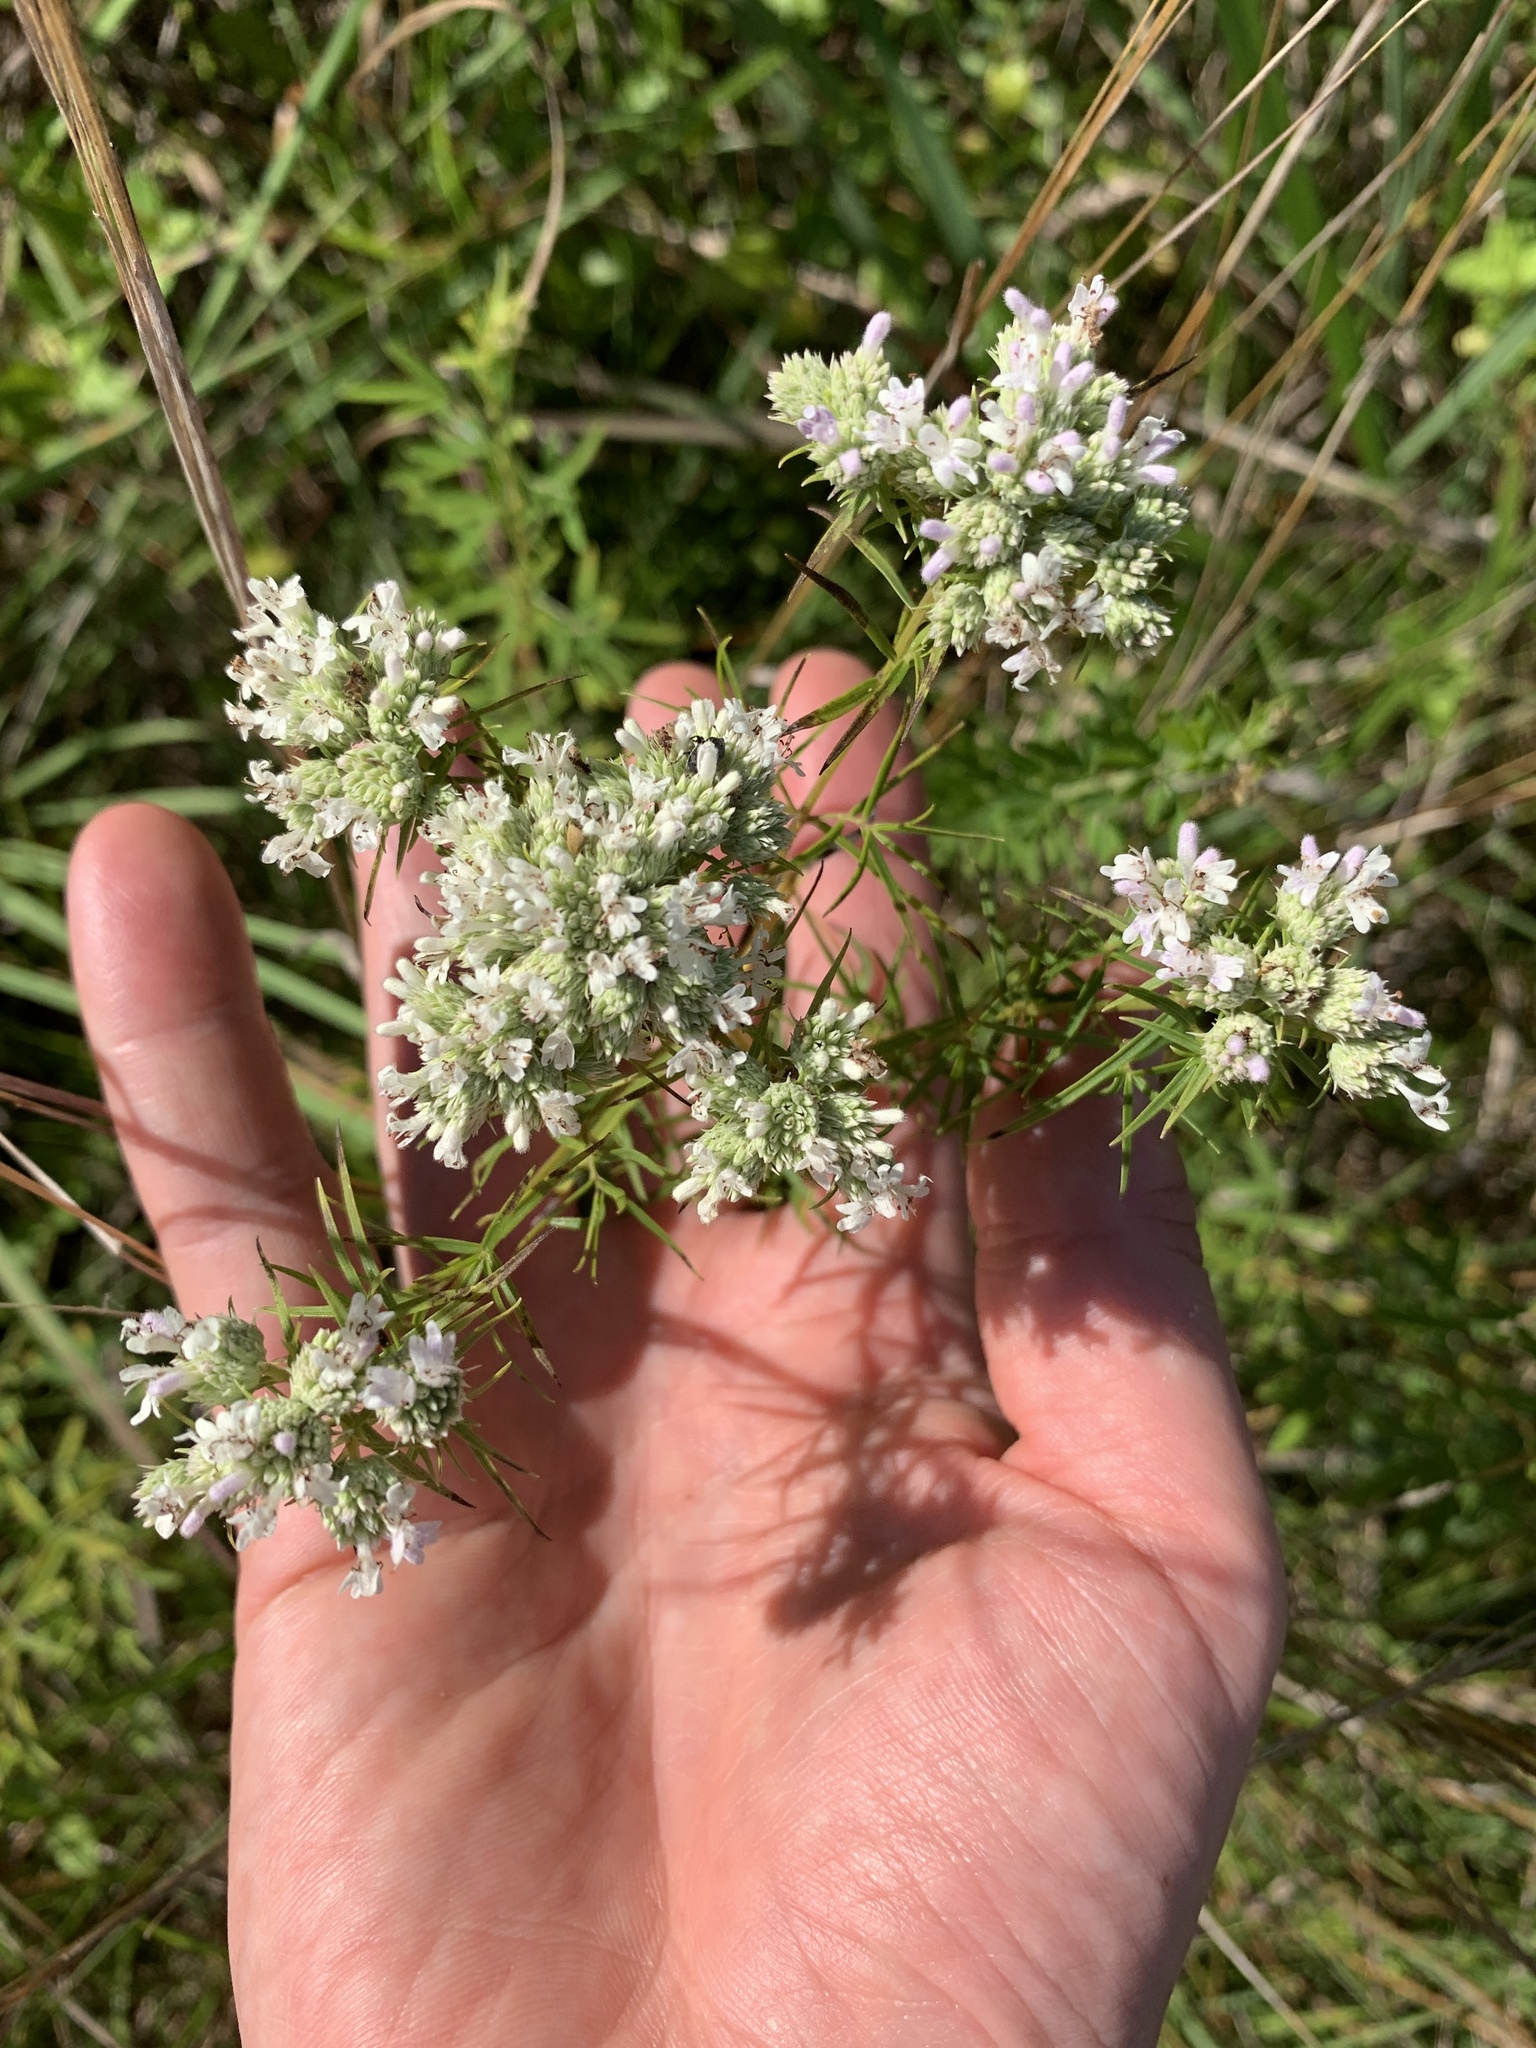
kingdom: Plantae
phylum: Tracheophyta
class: Magnoliopsida
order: Lamiales
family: Lamiaceae
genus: Pycnanthemum
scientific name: Pycnanthemum tenuifolium
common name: Narrow-leaf mountain-mint
